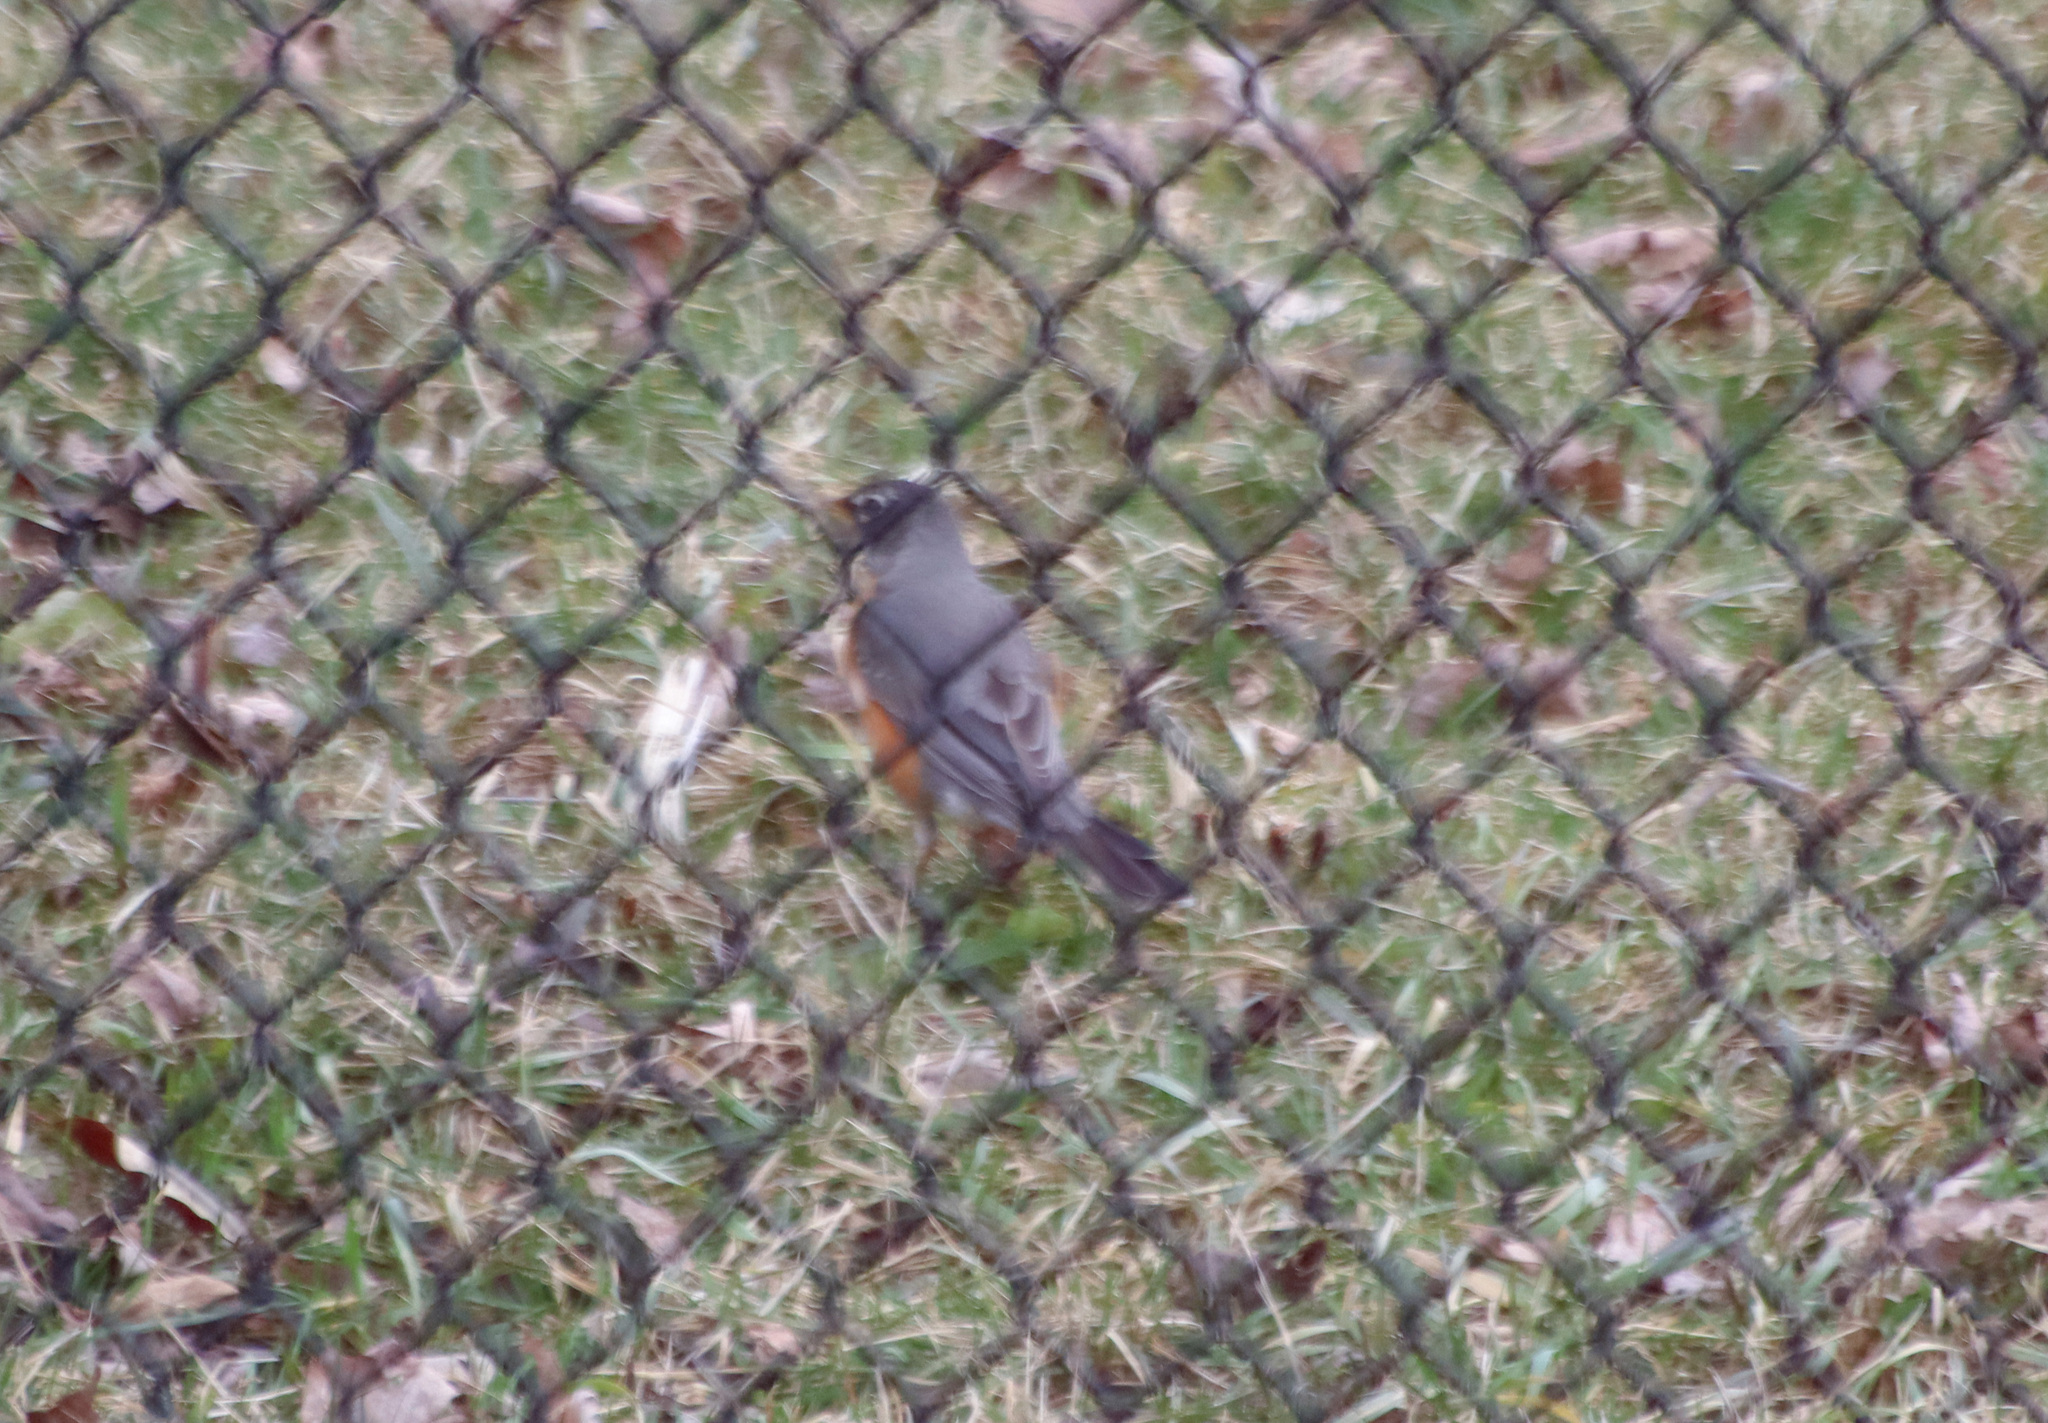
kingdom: Animalia
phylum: Chordata
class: Aves
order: Passeriformes
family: Turdidae
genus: Turdus
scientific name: Turdus migratorius
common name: American robin
